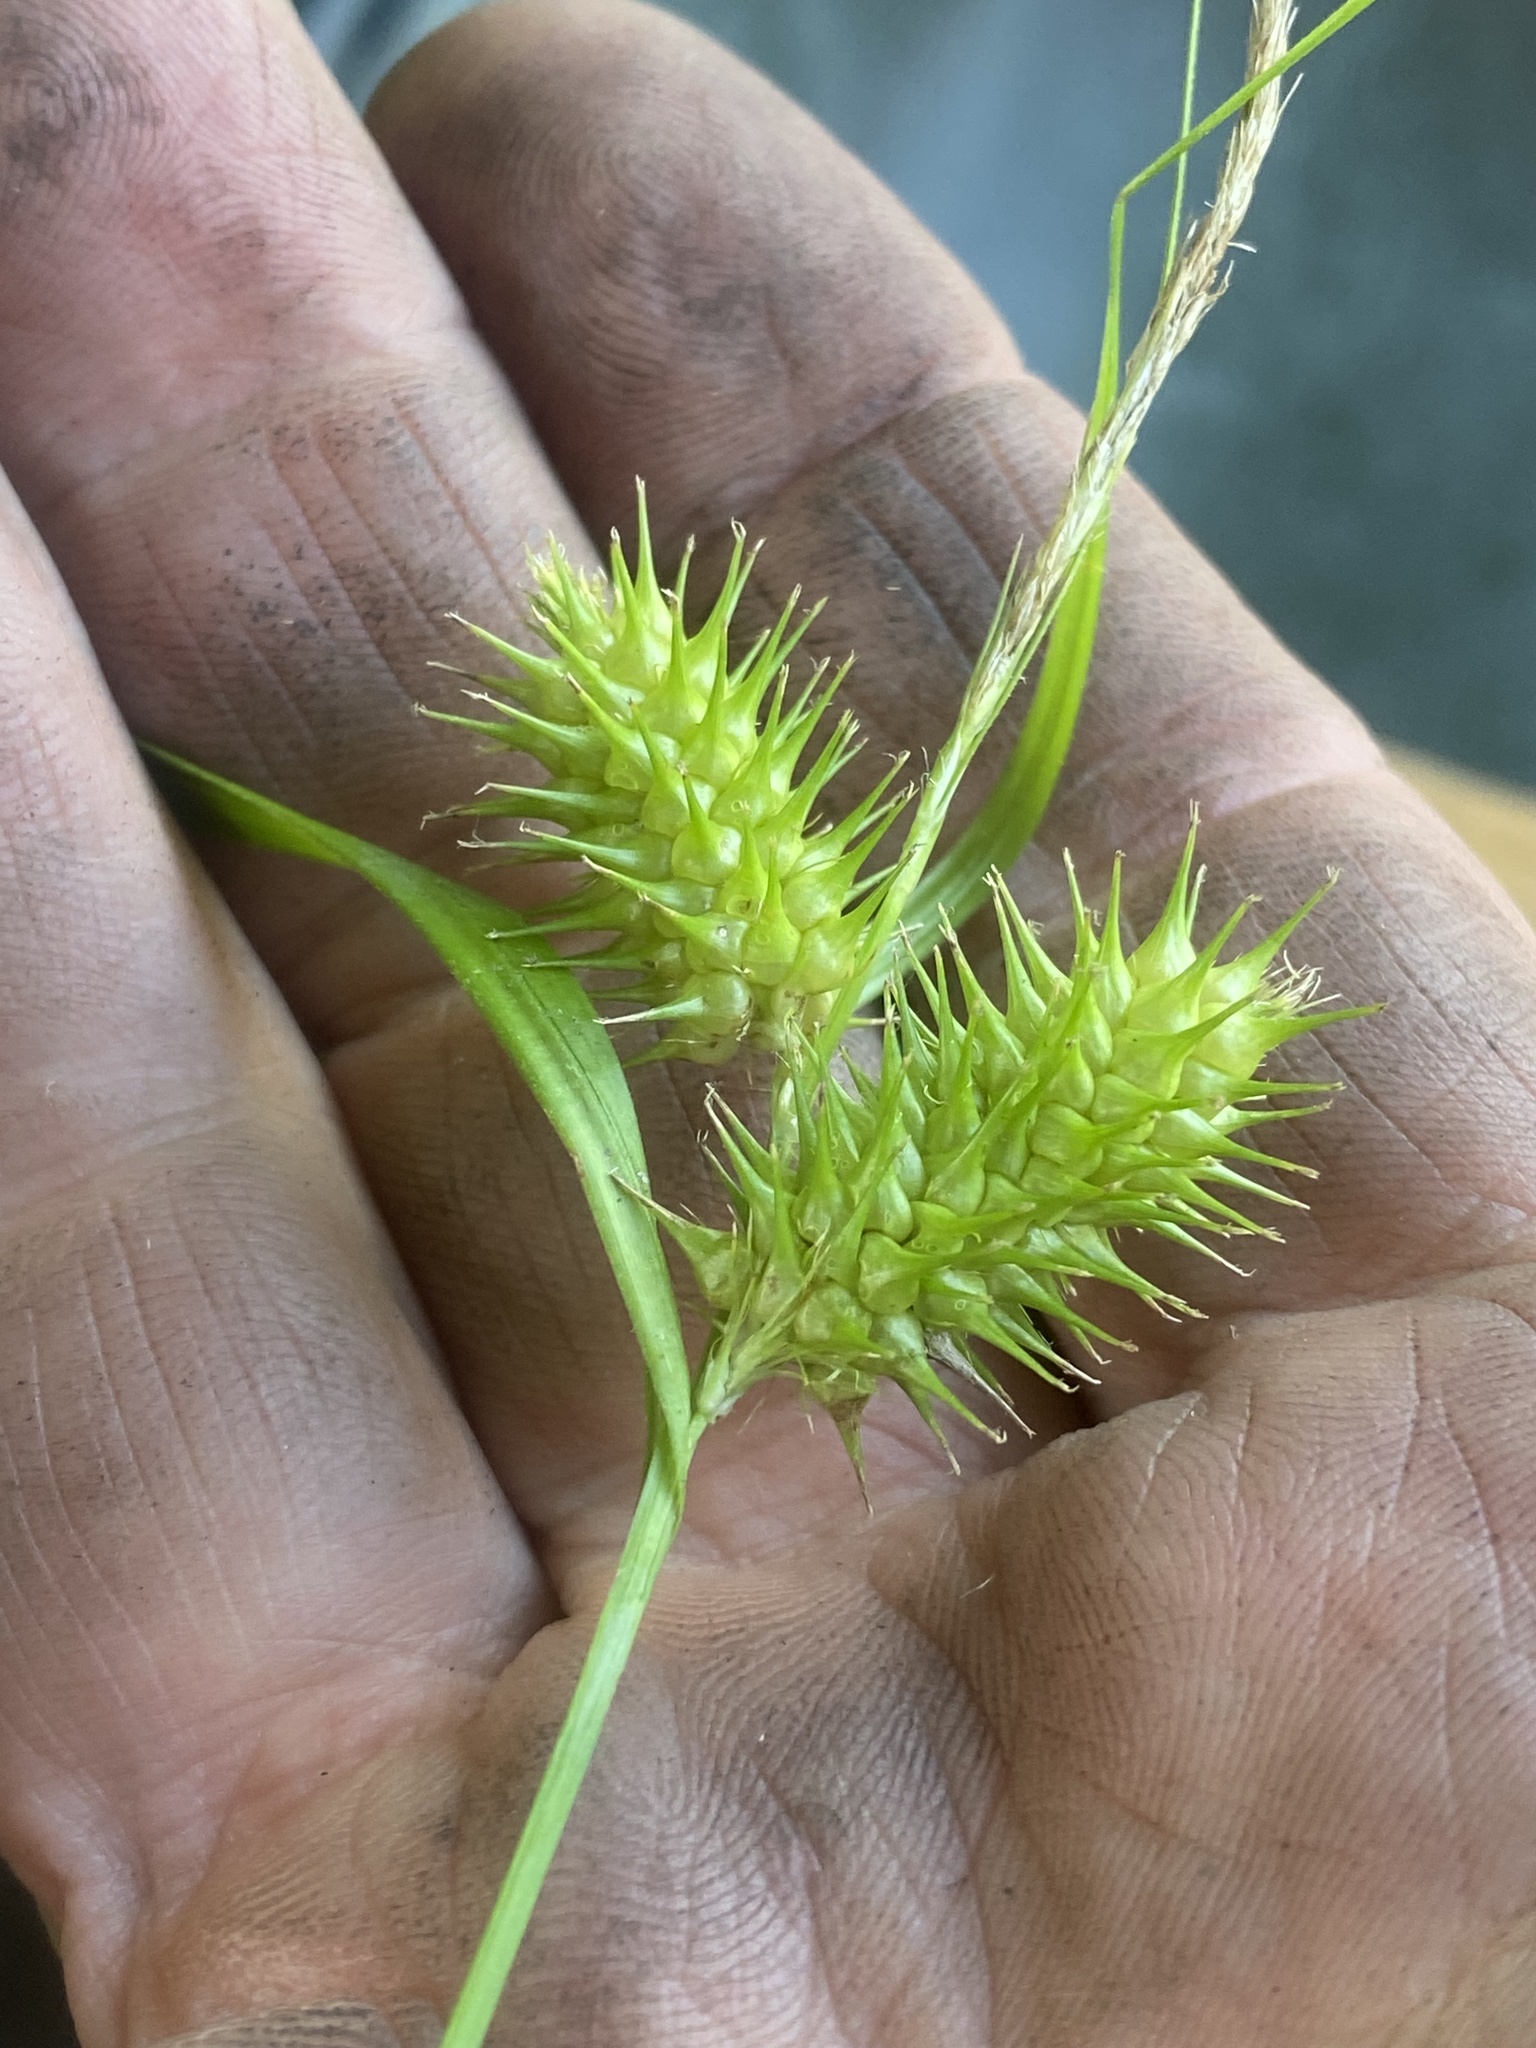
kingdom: Plantae
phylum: Tracheophyta
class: Liliopsida
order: Poales
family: Cyperaceae
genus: Carex
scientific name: Carex lurida
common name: Sallow sedge
